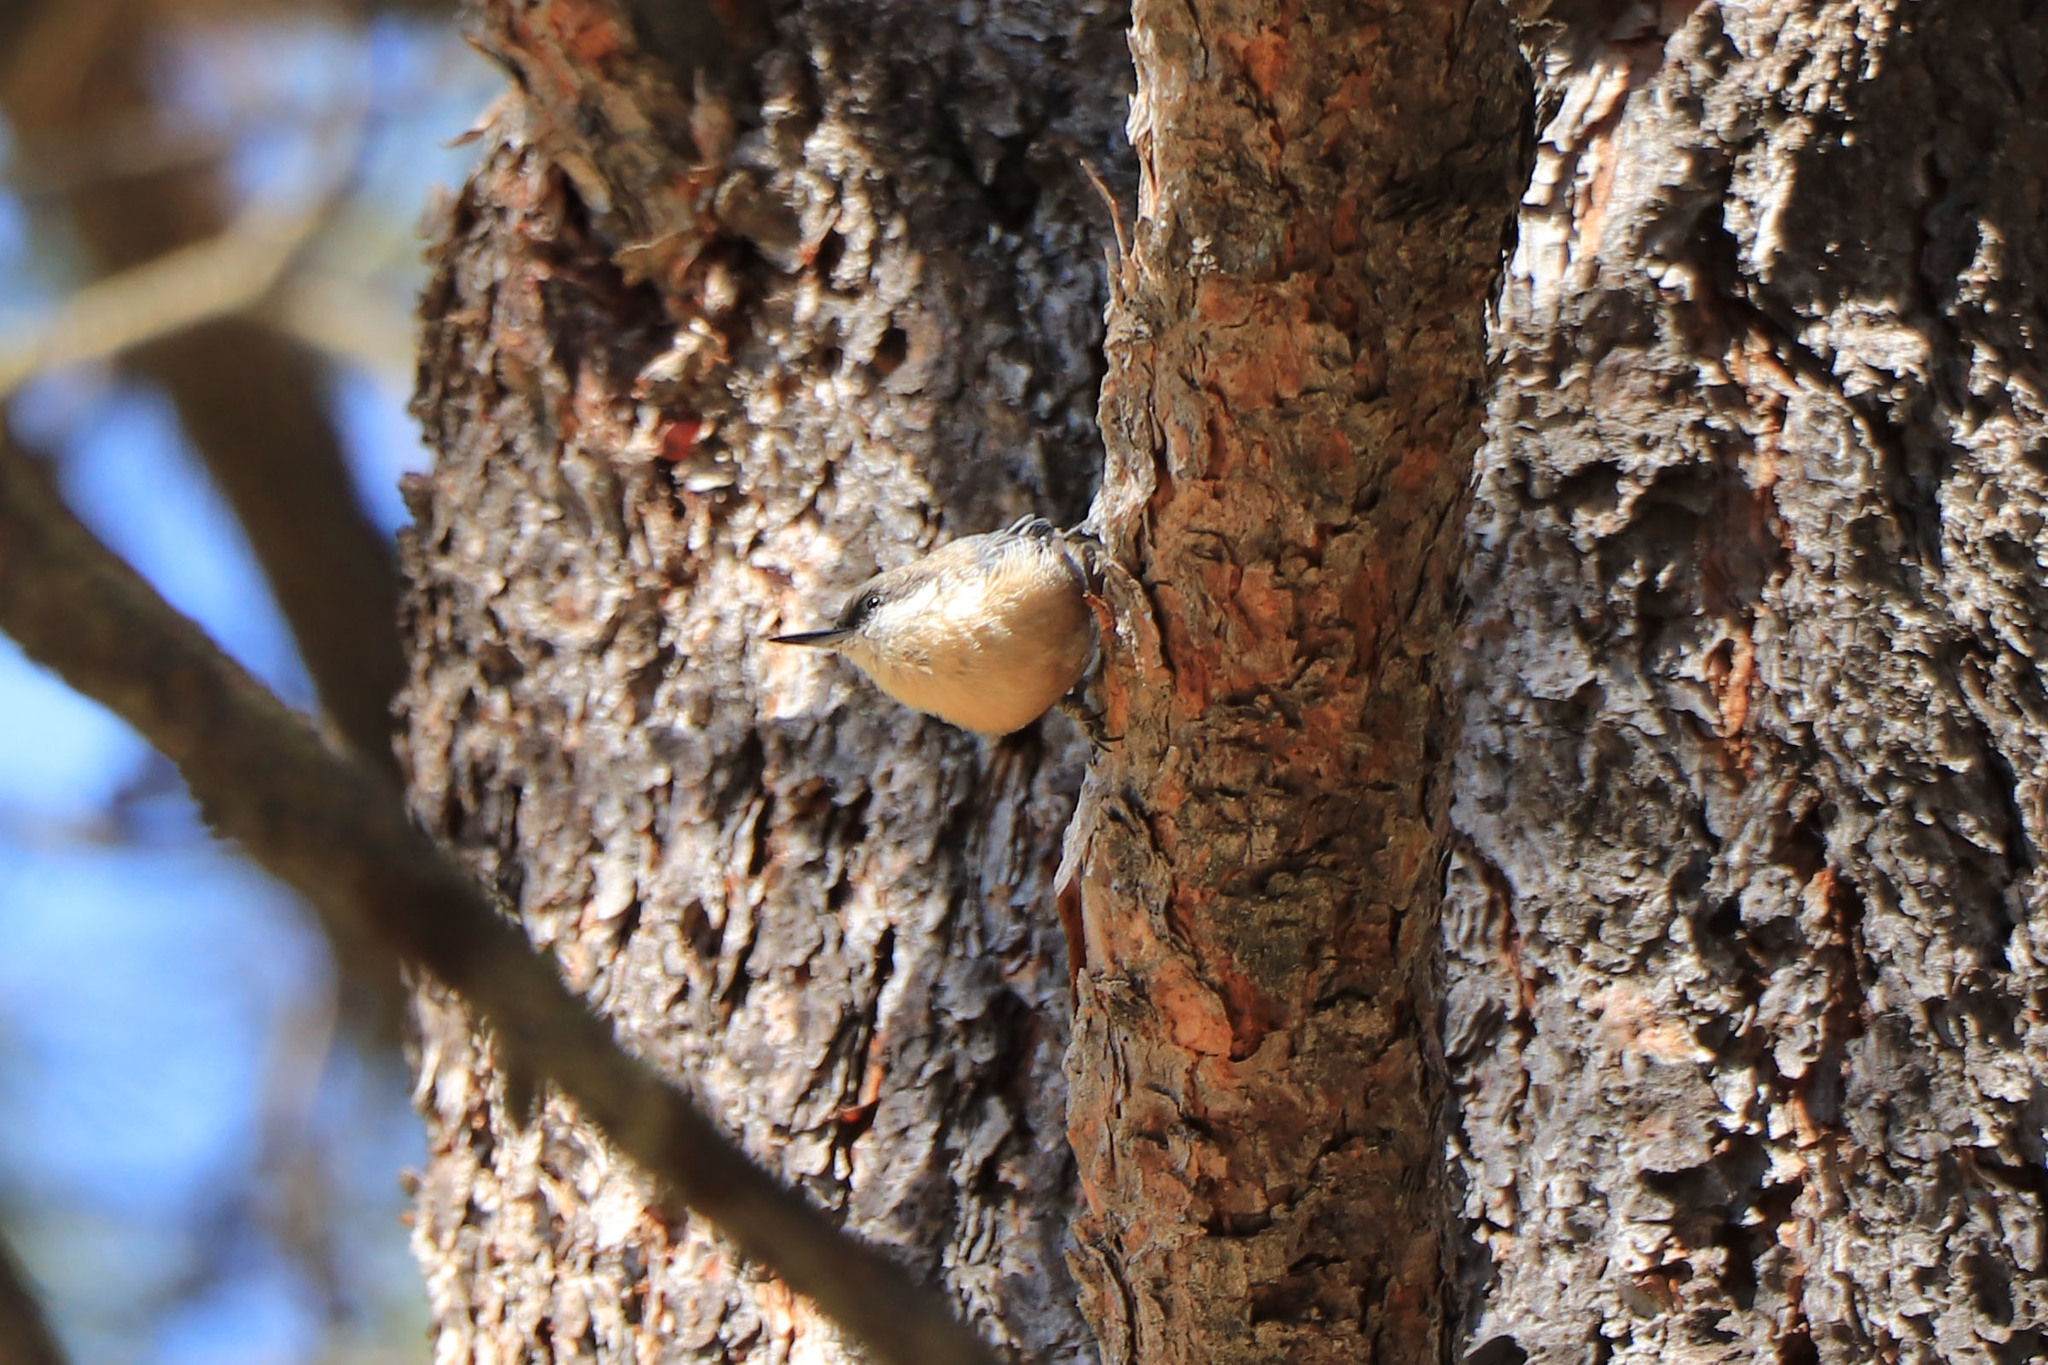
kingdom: Animalia
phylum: Chordata
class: Aves
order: Passeriformes
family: Sittidae
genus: Sitta
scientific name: Sitta pygmaea
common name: Pygmy nuthatch
